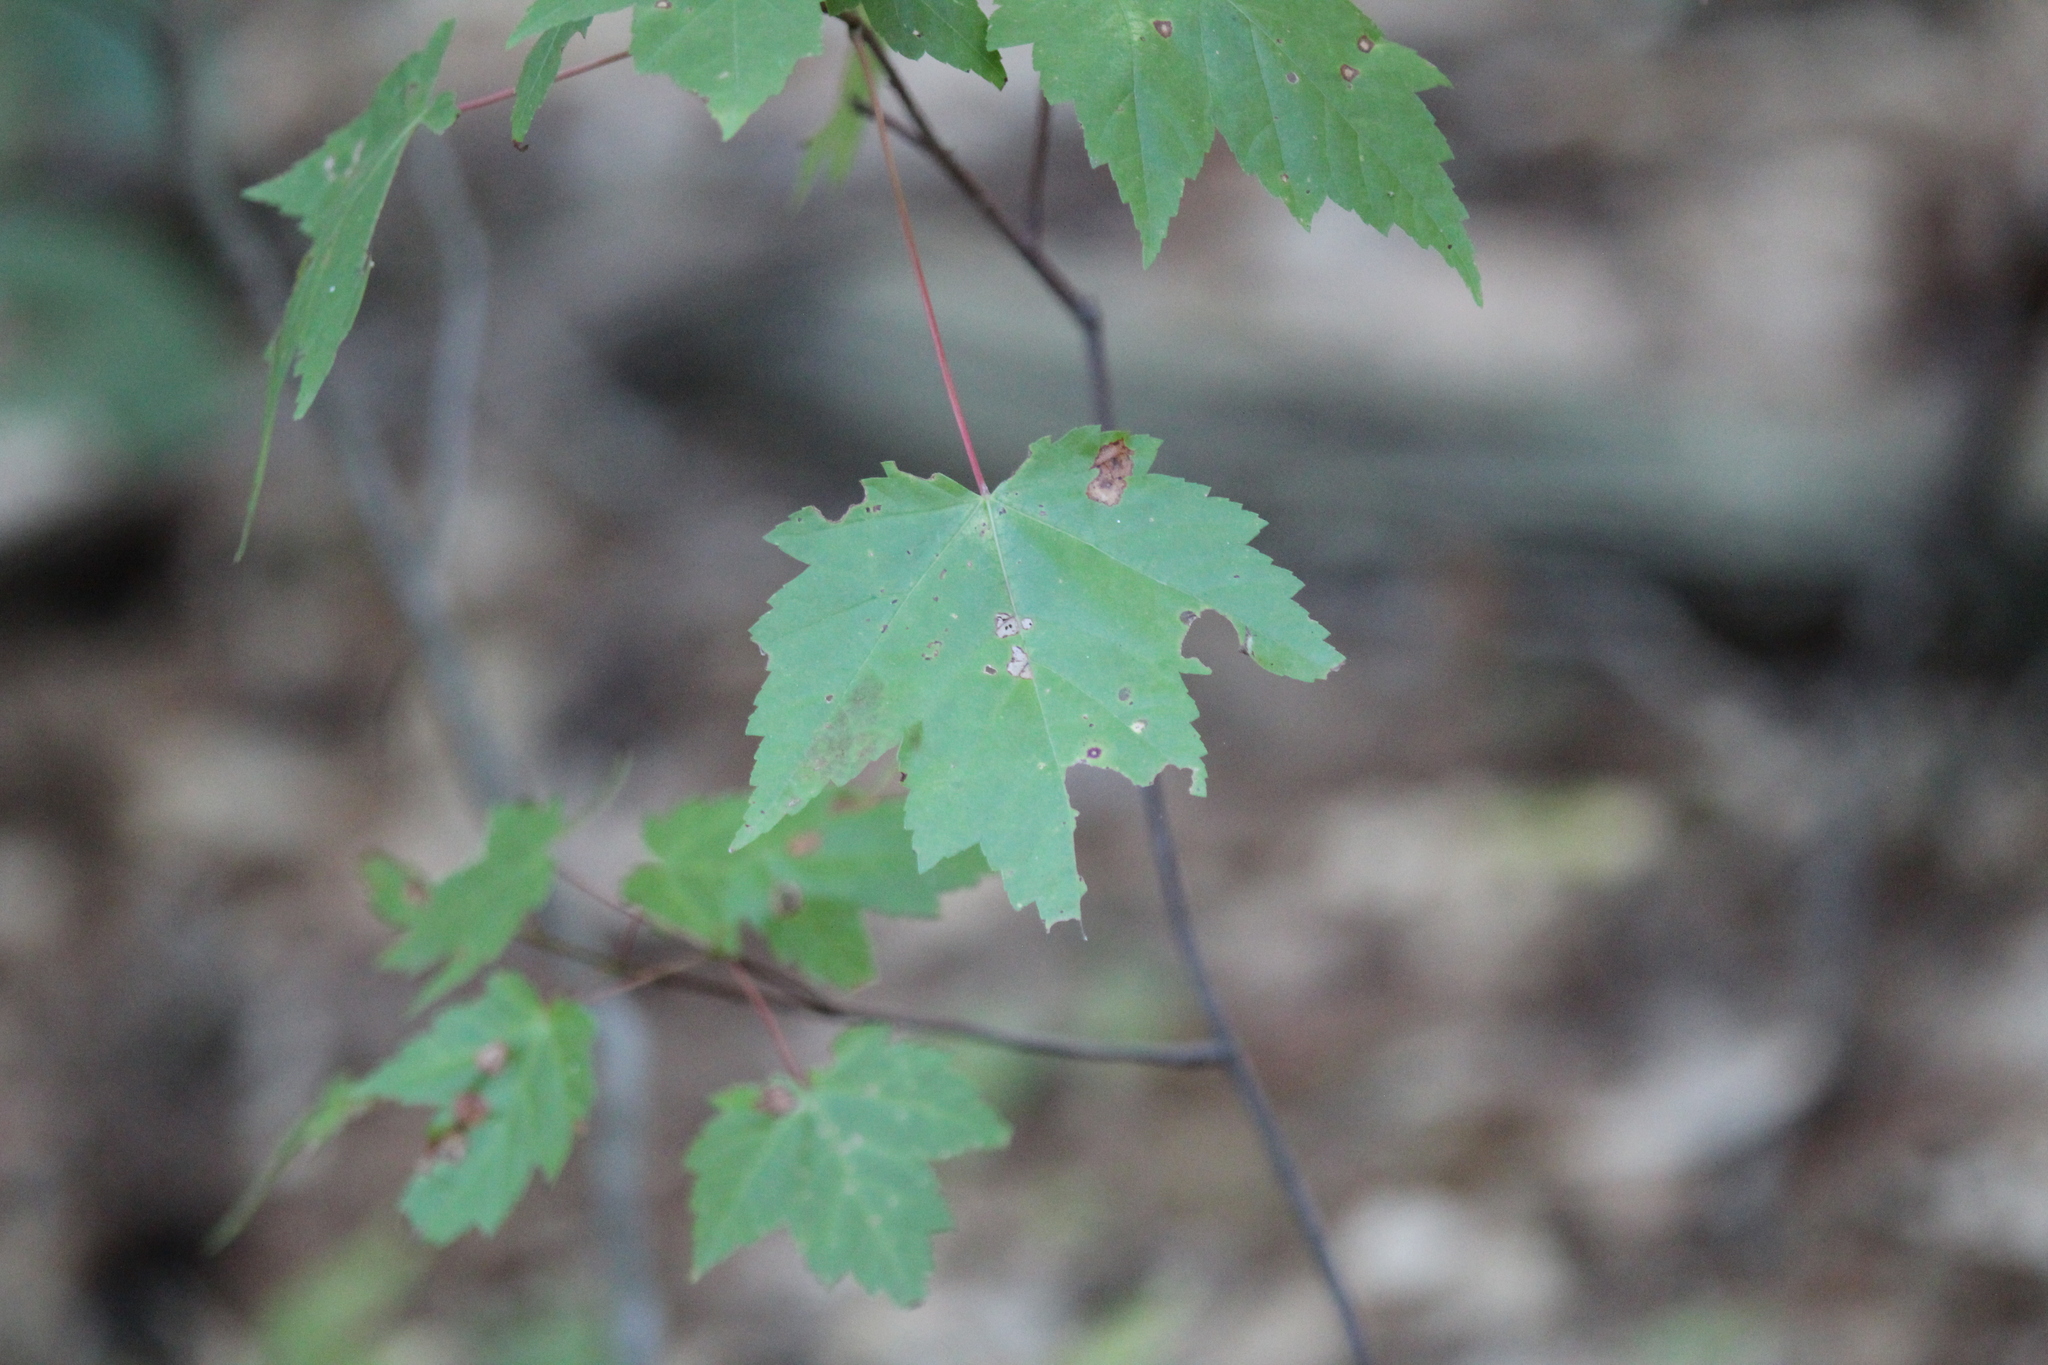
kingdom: Plantae
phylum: Tracheophyta
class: Magnoliopsida
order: Sapindales
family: Sapindaceae
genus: Acer
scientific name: Acer rubrum
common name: Red maple
